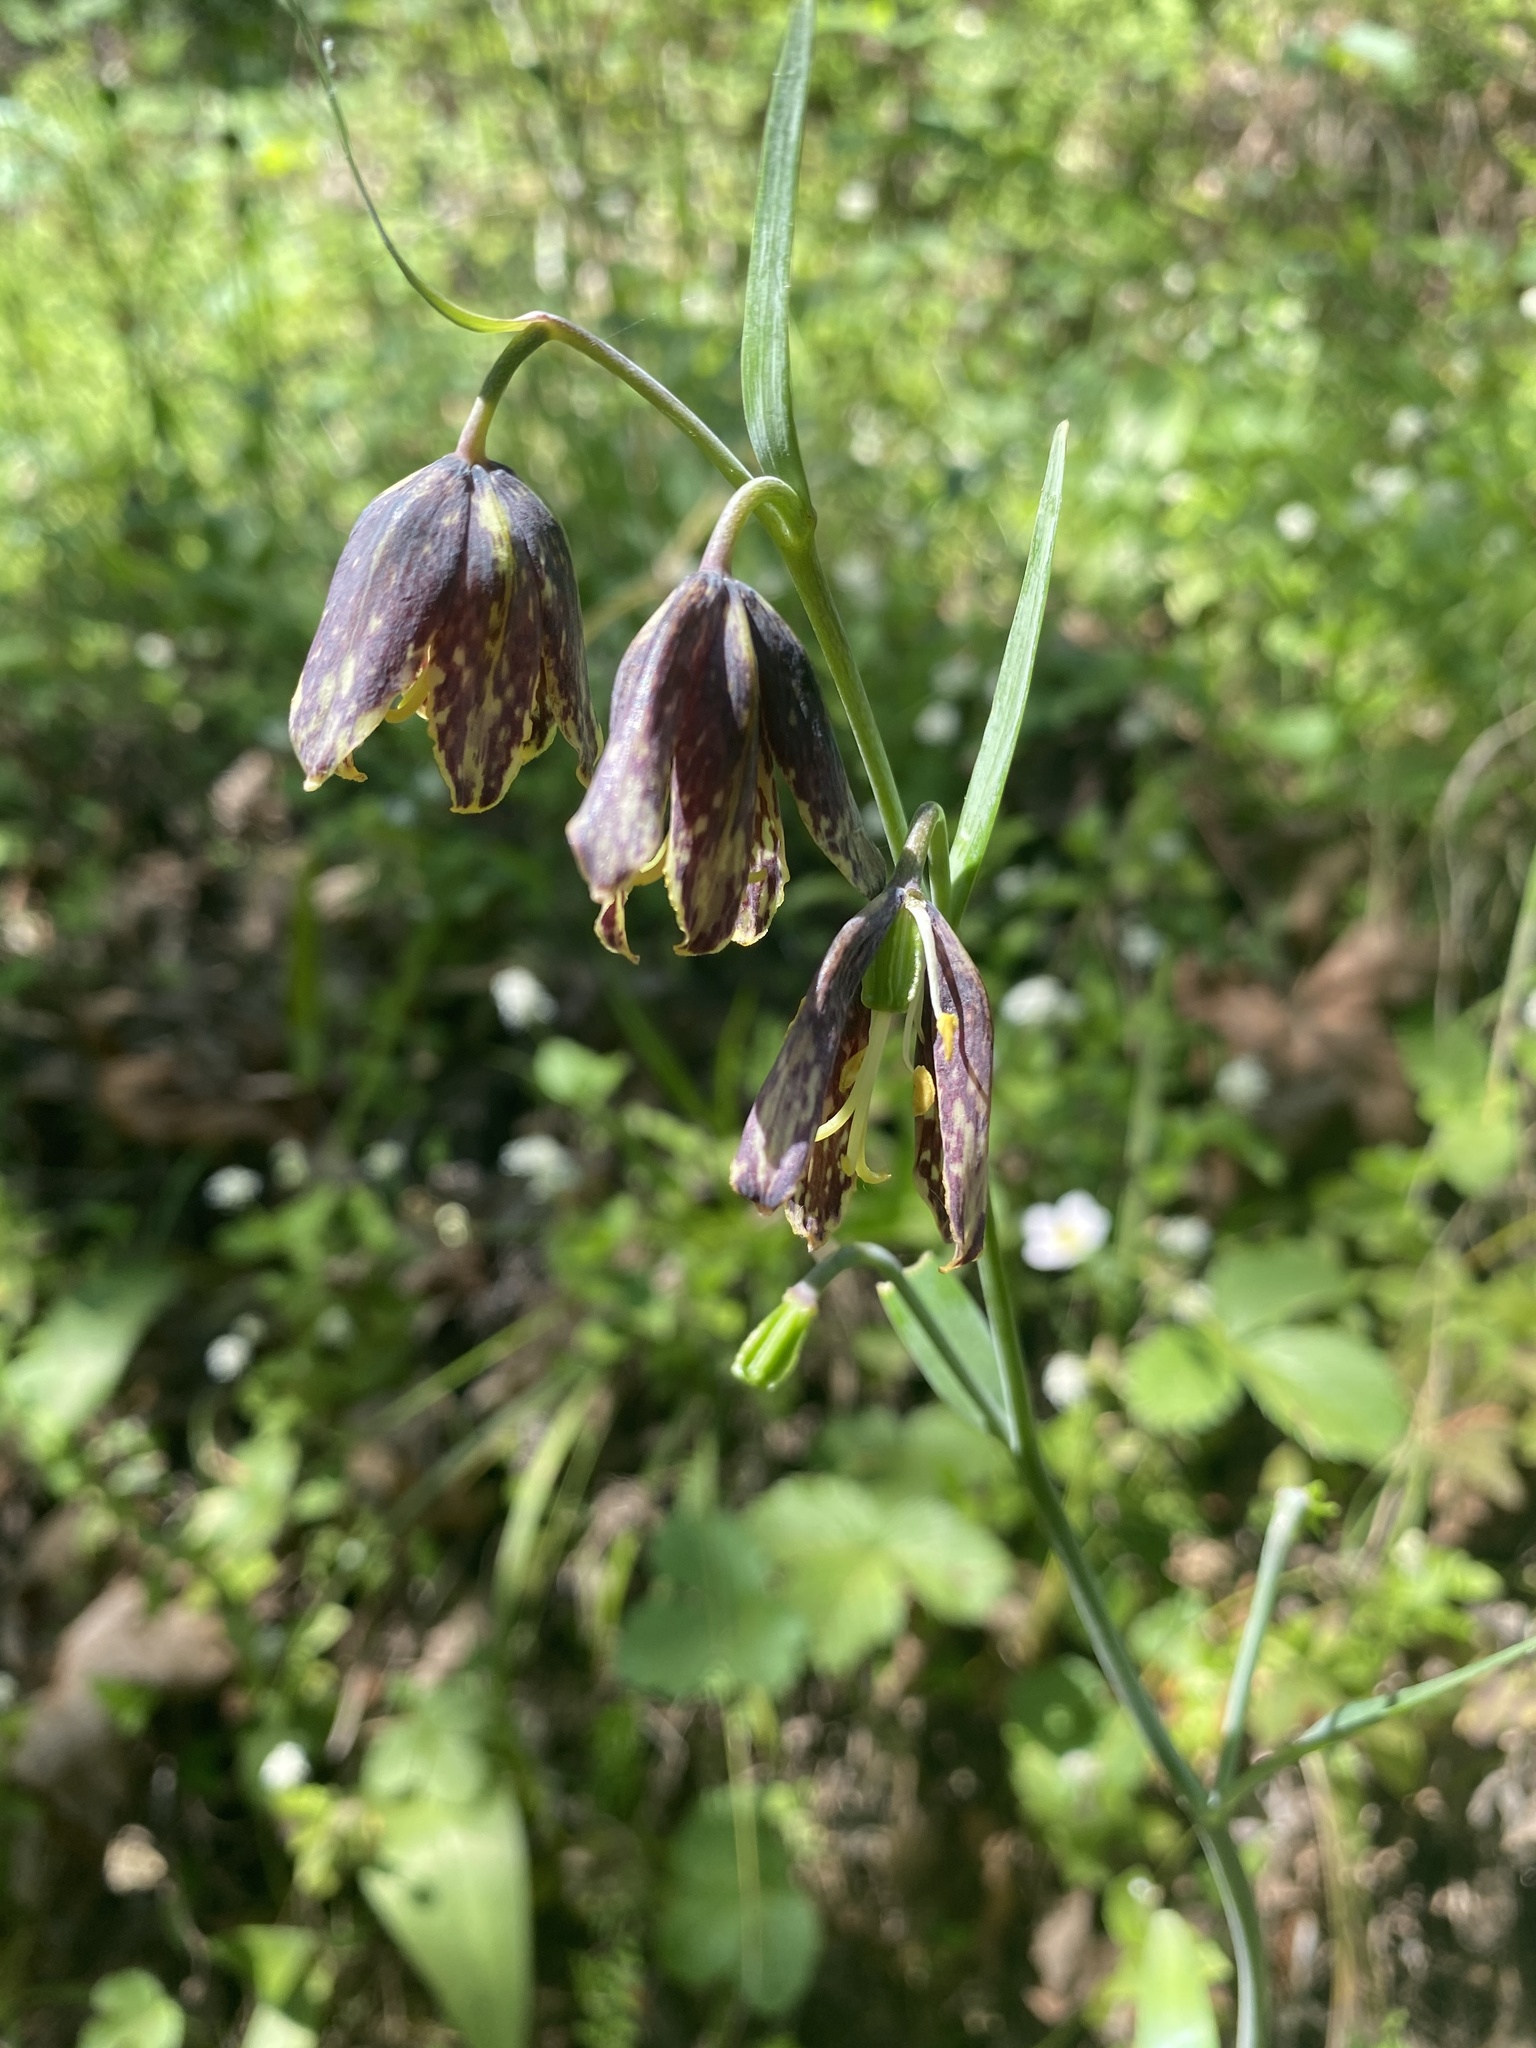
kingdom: Plantae
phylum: Tracheophyta
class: Liliopsida
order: Liliales
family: Liliaceae
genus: Fritillaria
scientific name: Fritillaria affinis
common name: Ojai fritillary
